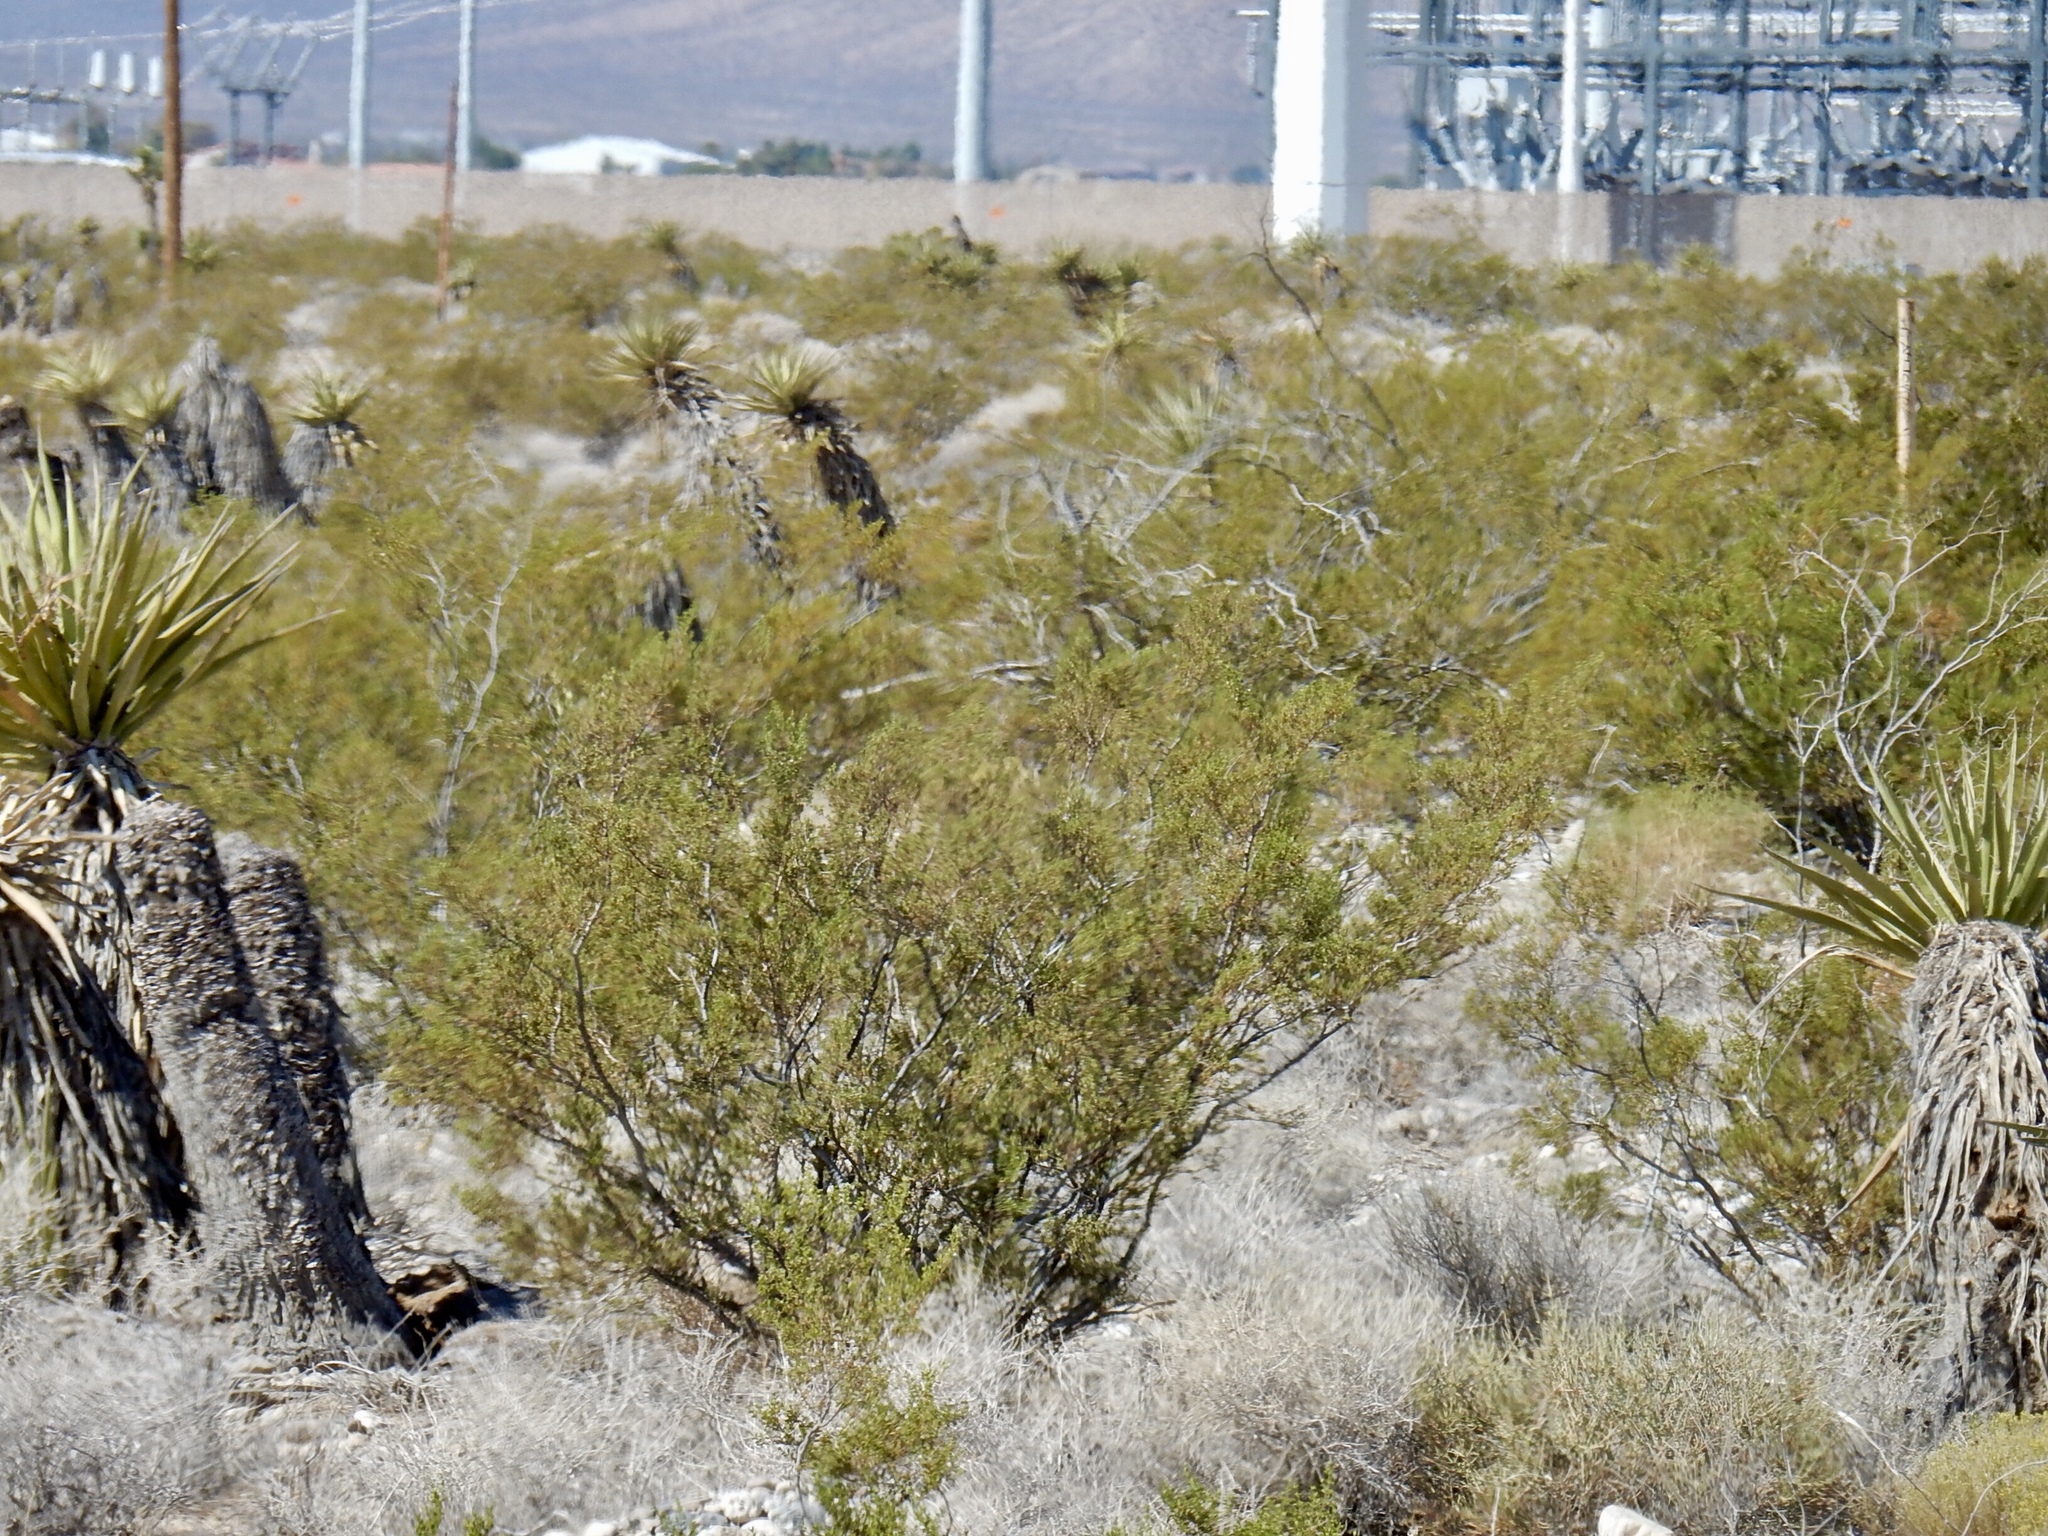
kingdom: Plantae
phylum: Tracheophyta
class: Magnoliopsida
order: Zygophyllales
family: Zygophyllaceae
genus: Larrea
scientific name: Larrea tridentata
